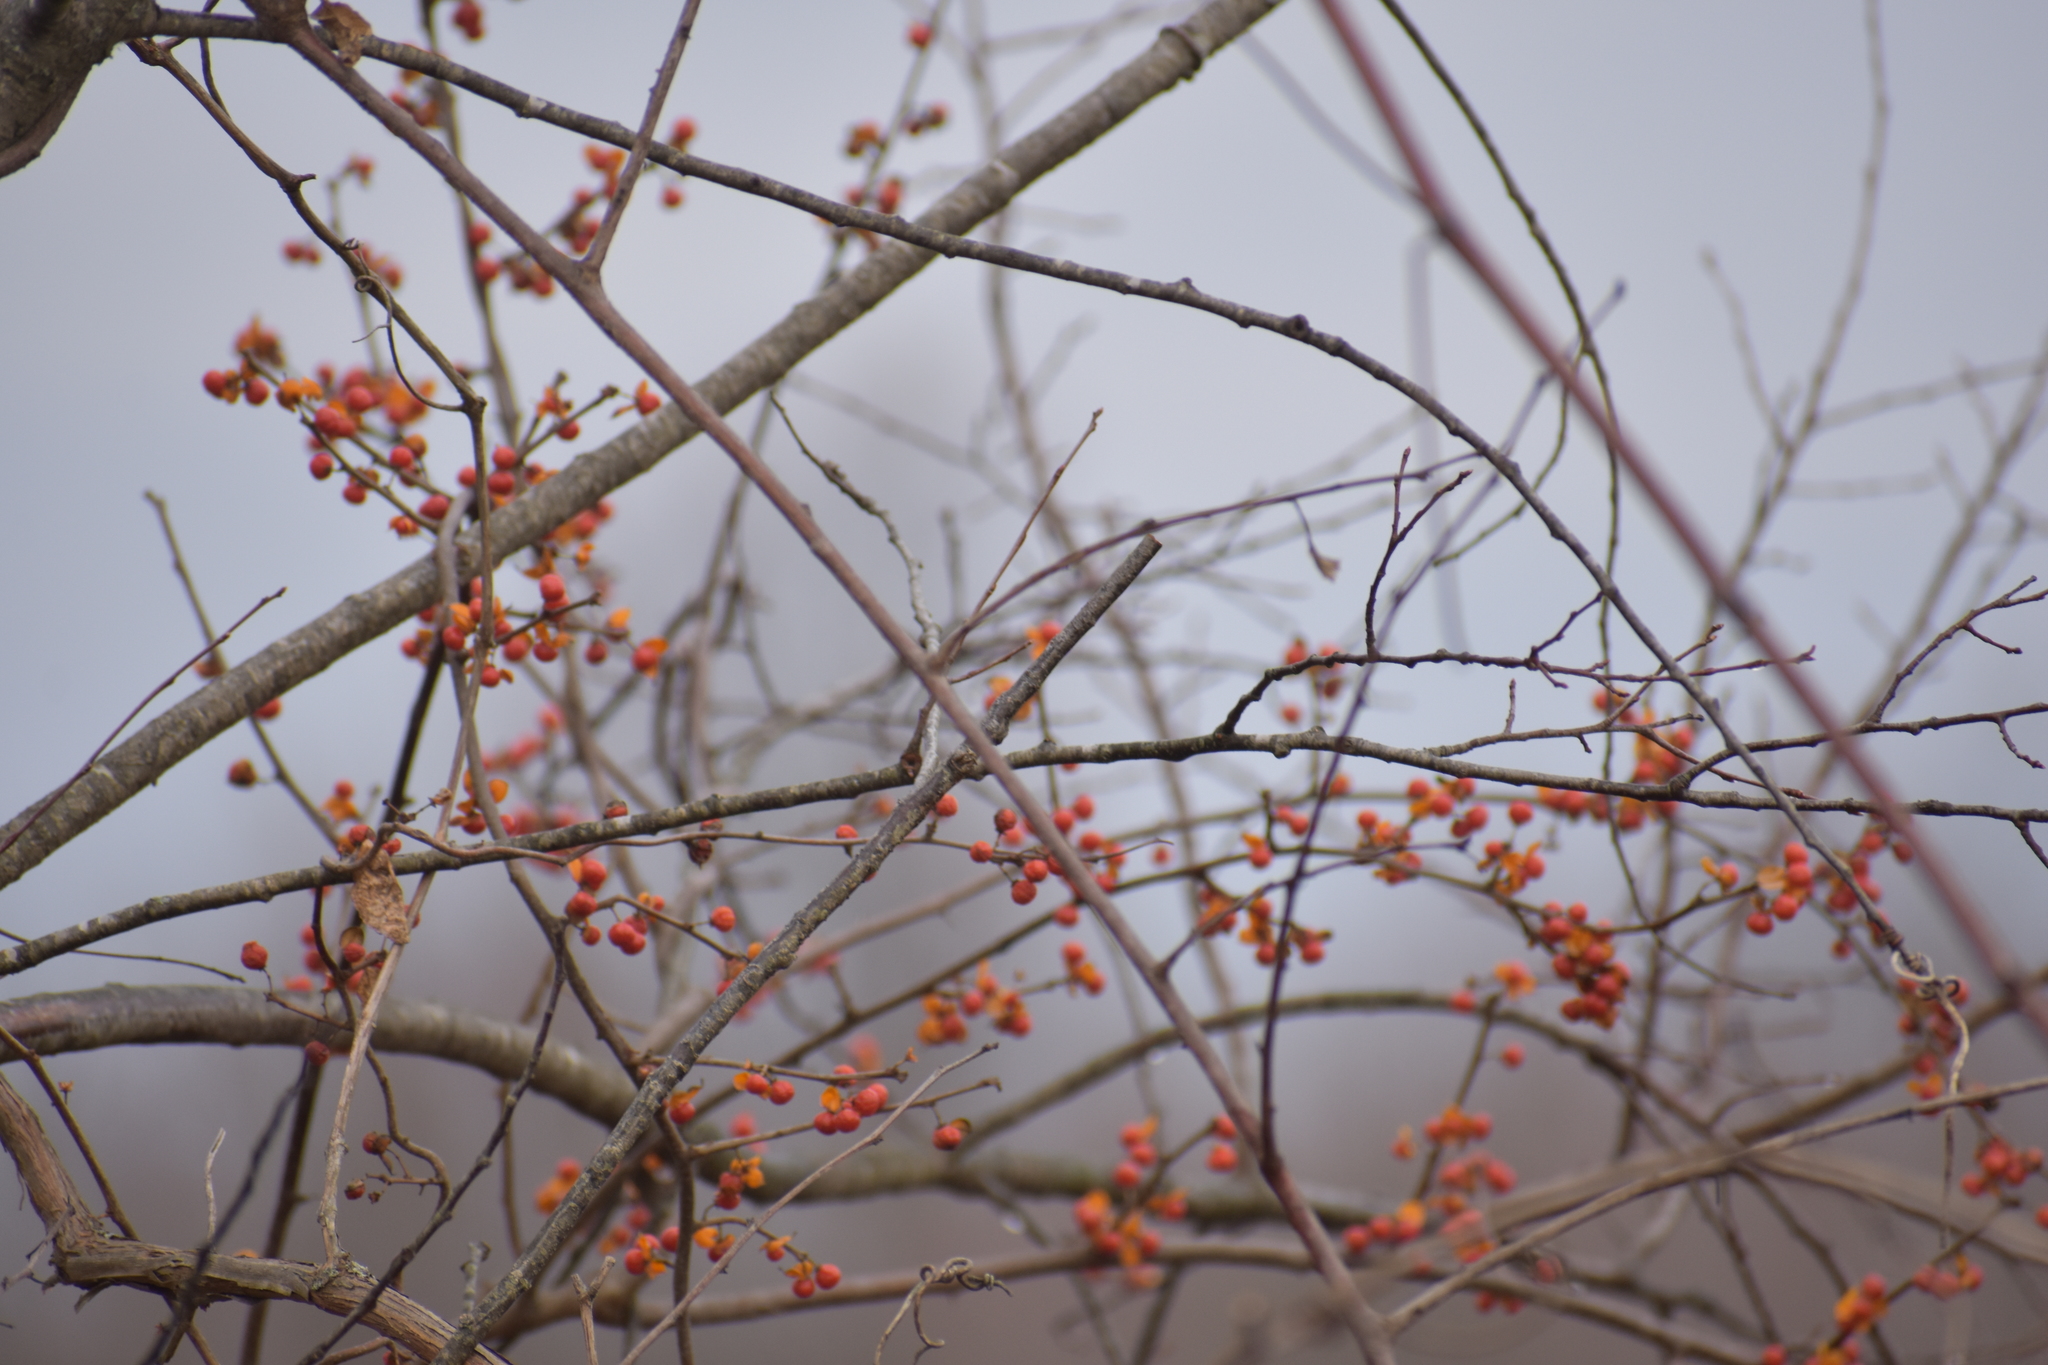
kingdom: Plantae
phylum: Tracheophyta
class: Magnoliopsida
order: Celastrales
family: Celastraceae
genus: Celastrus
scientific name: Celastrus orbiculatus
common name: Oriental bittersweet
